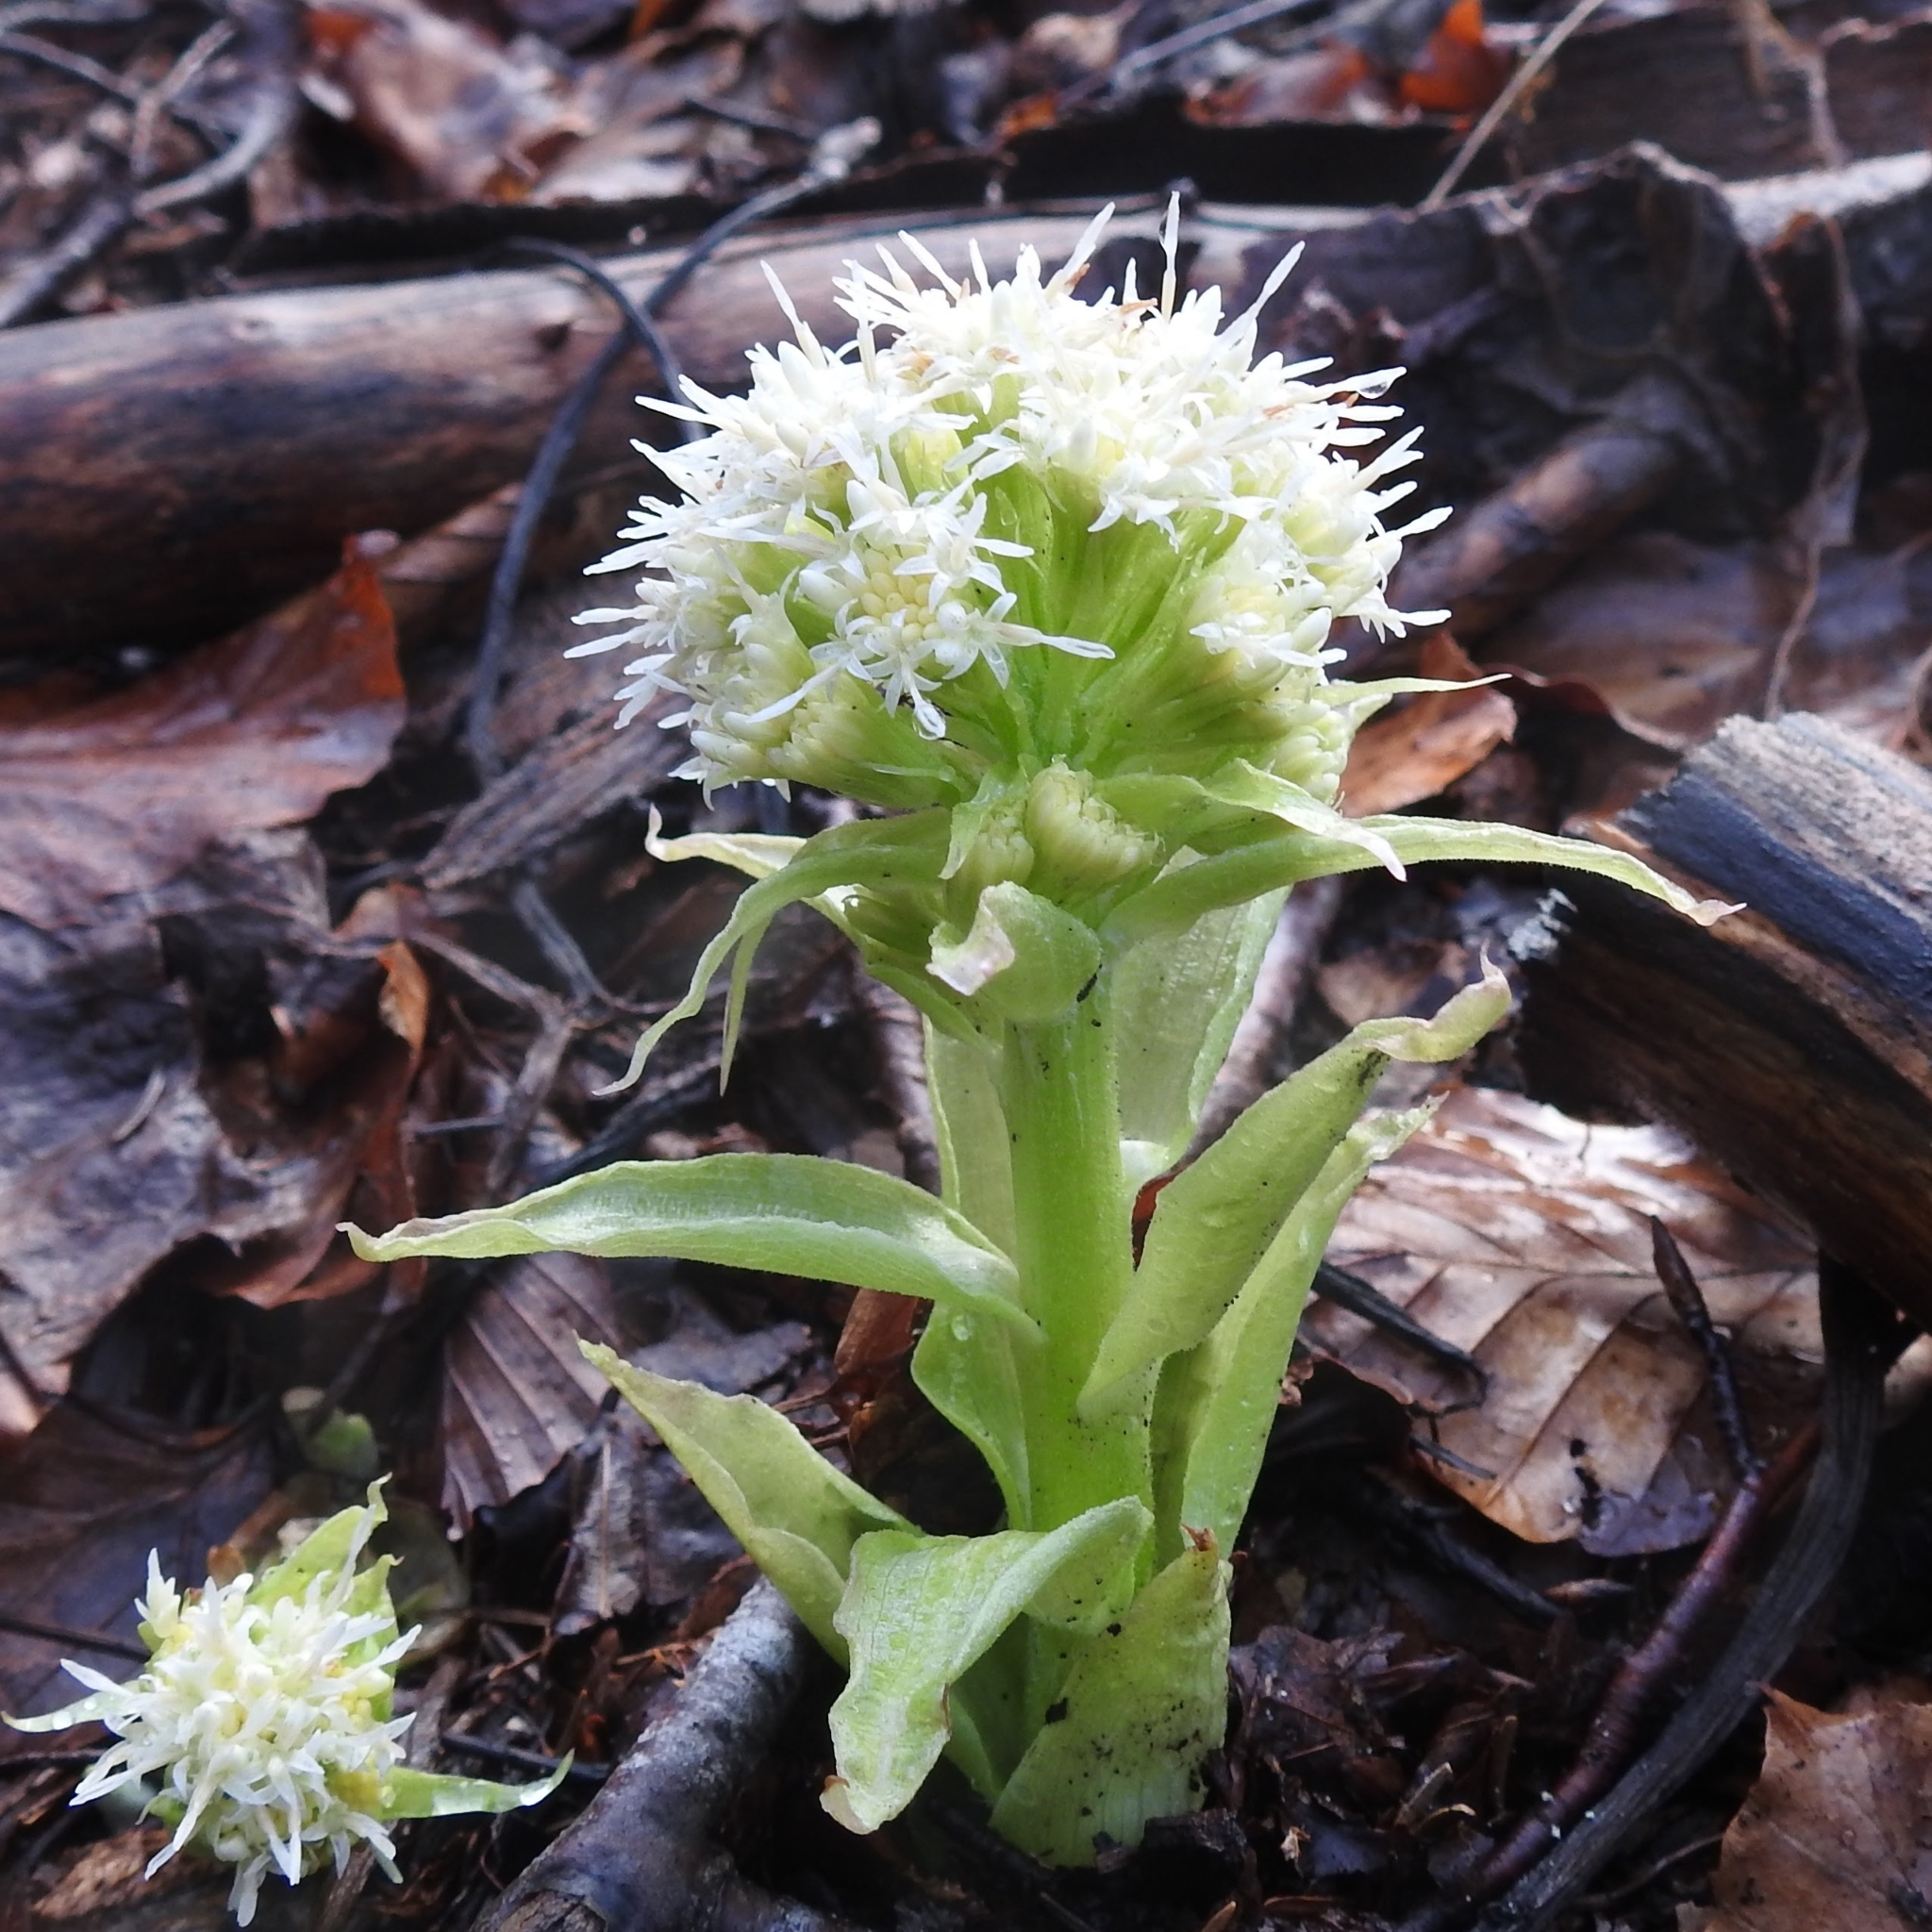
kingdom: Plantae
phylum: Tracheophyta
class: Magnoliopsida
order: Asterales
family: Asteraceae
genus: Petasites
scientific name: Petasites albus
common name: White butterbur
